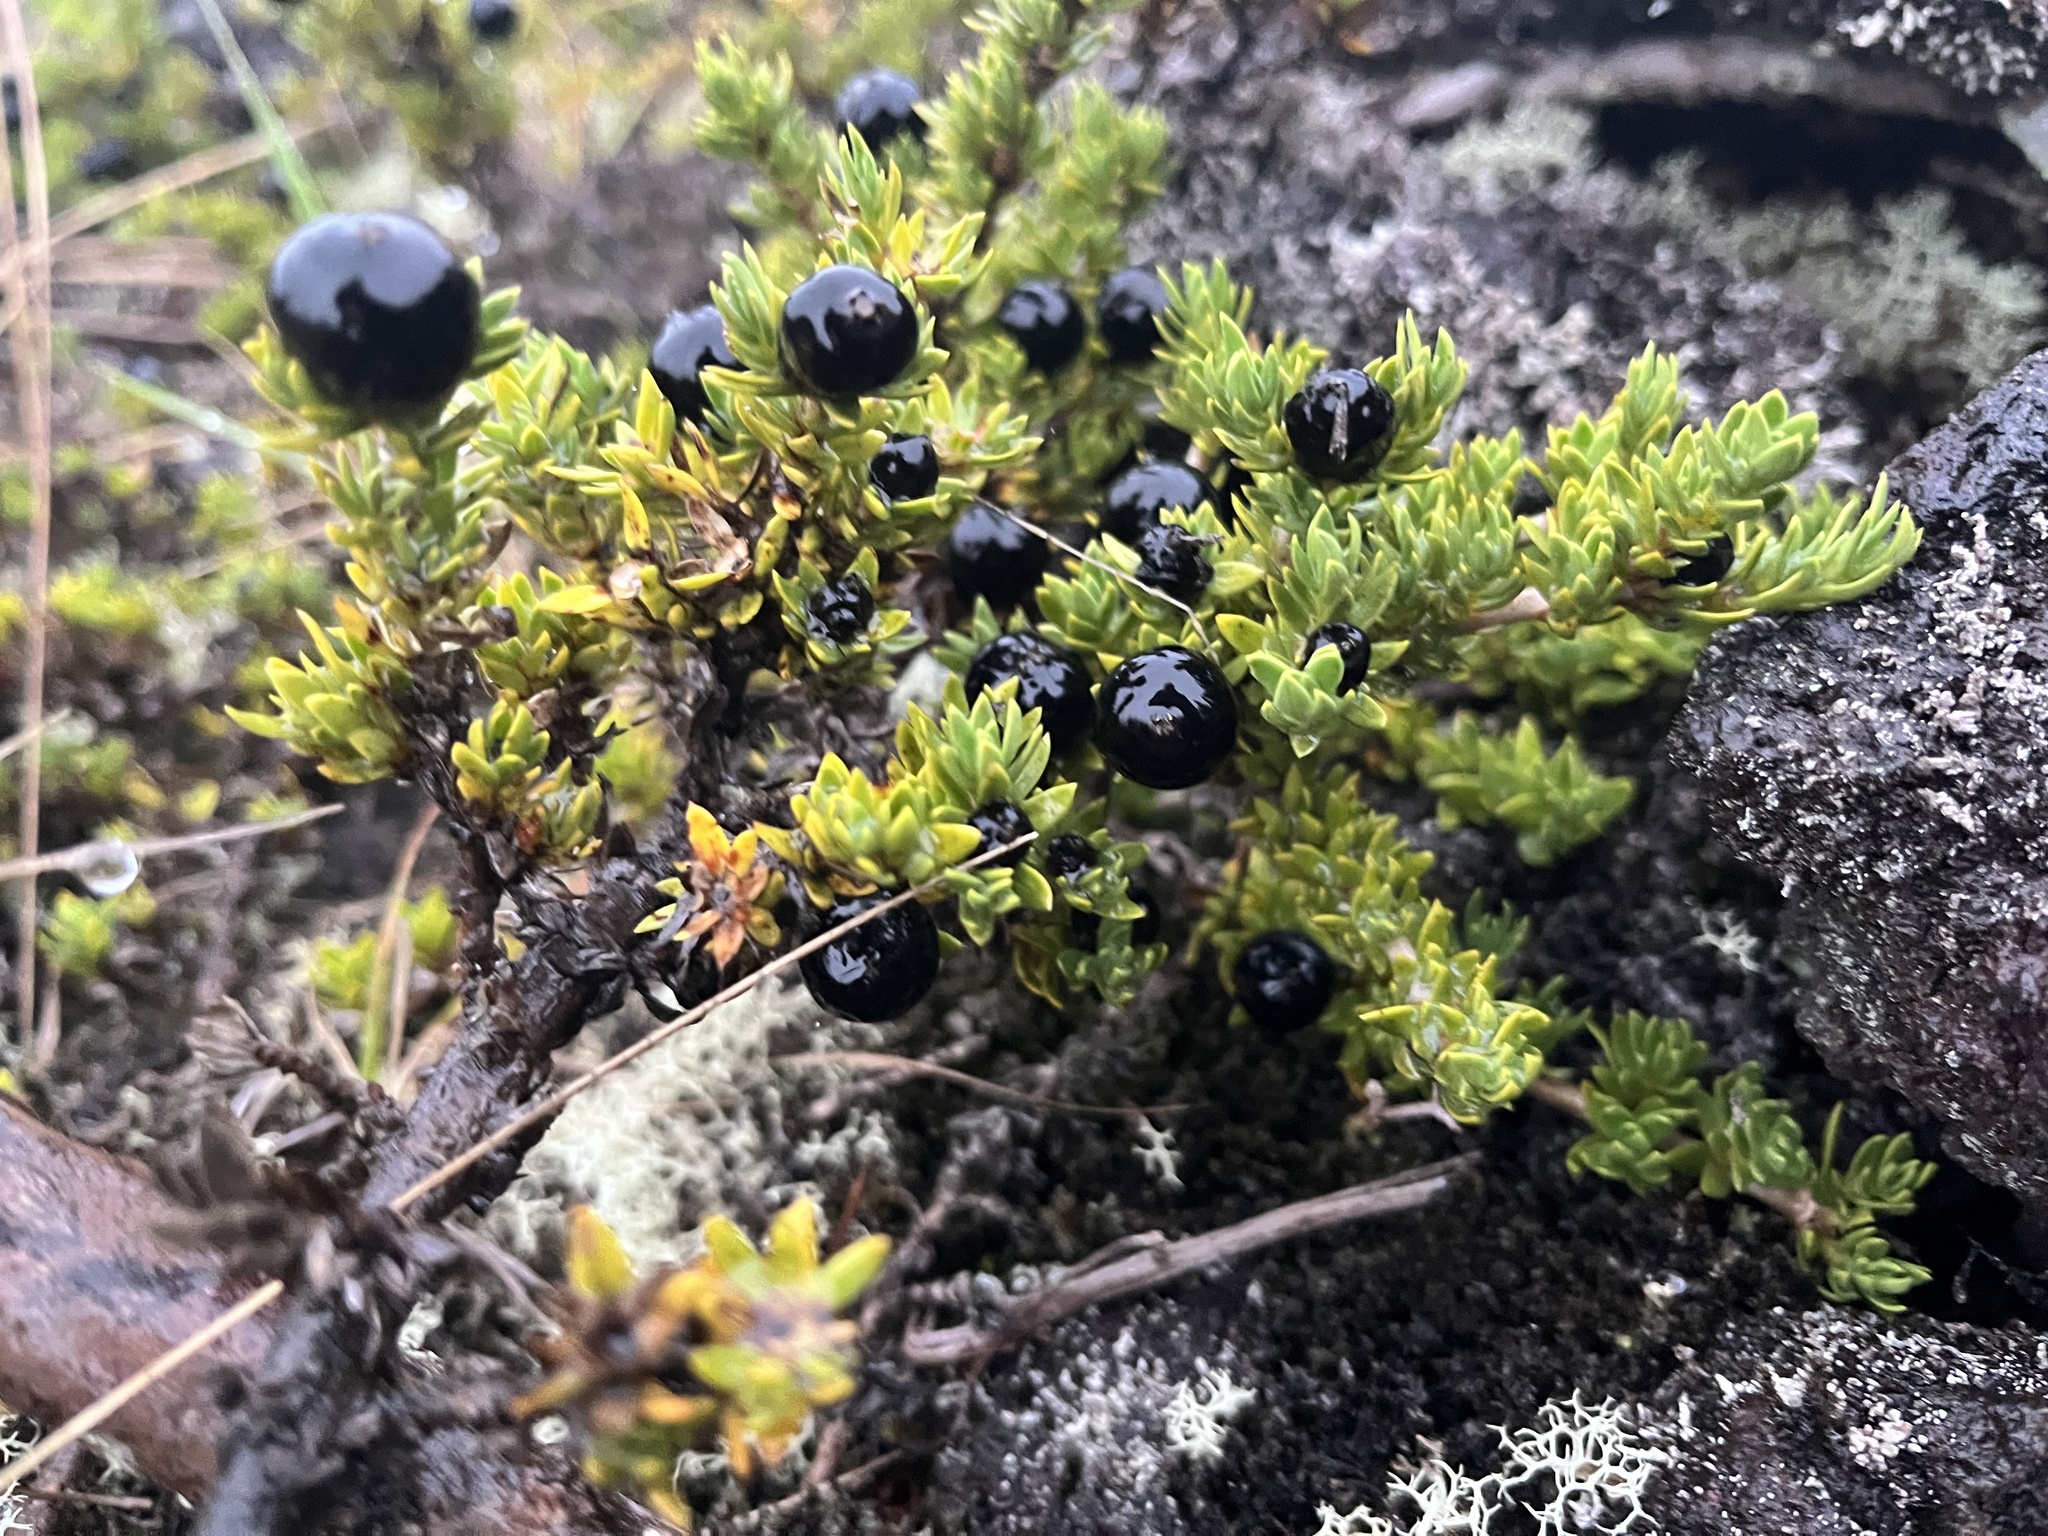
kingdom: Plantae
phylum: Tracheophyta
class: Magnoliopsida
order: Gentianales
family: Rubiaceae
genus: Coprosma
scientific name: Coprosma ernodeoides
